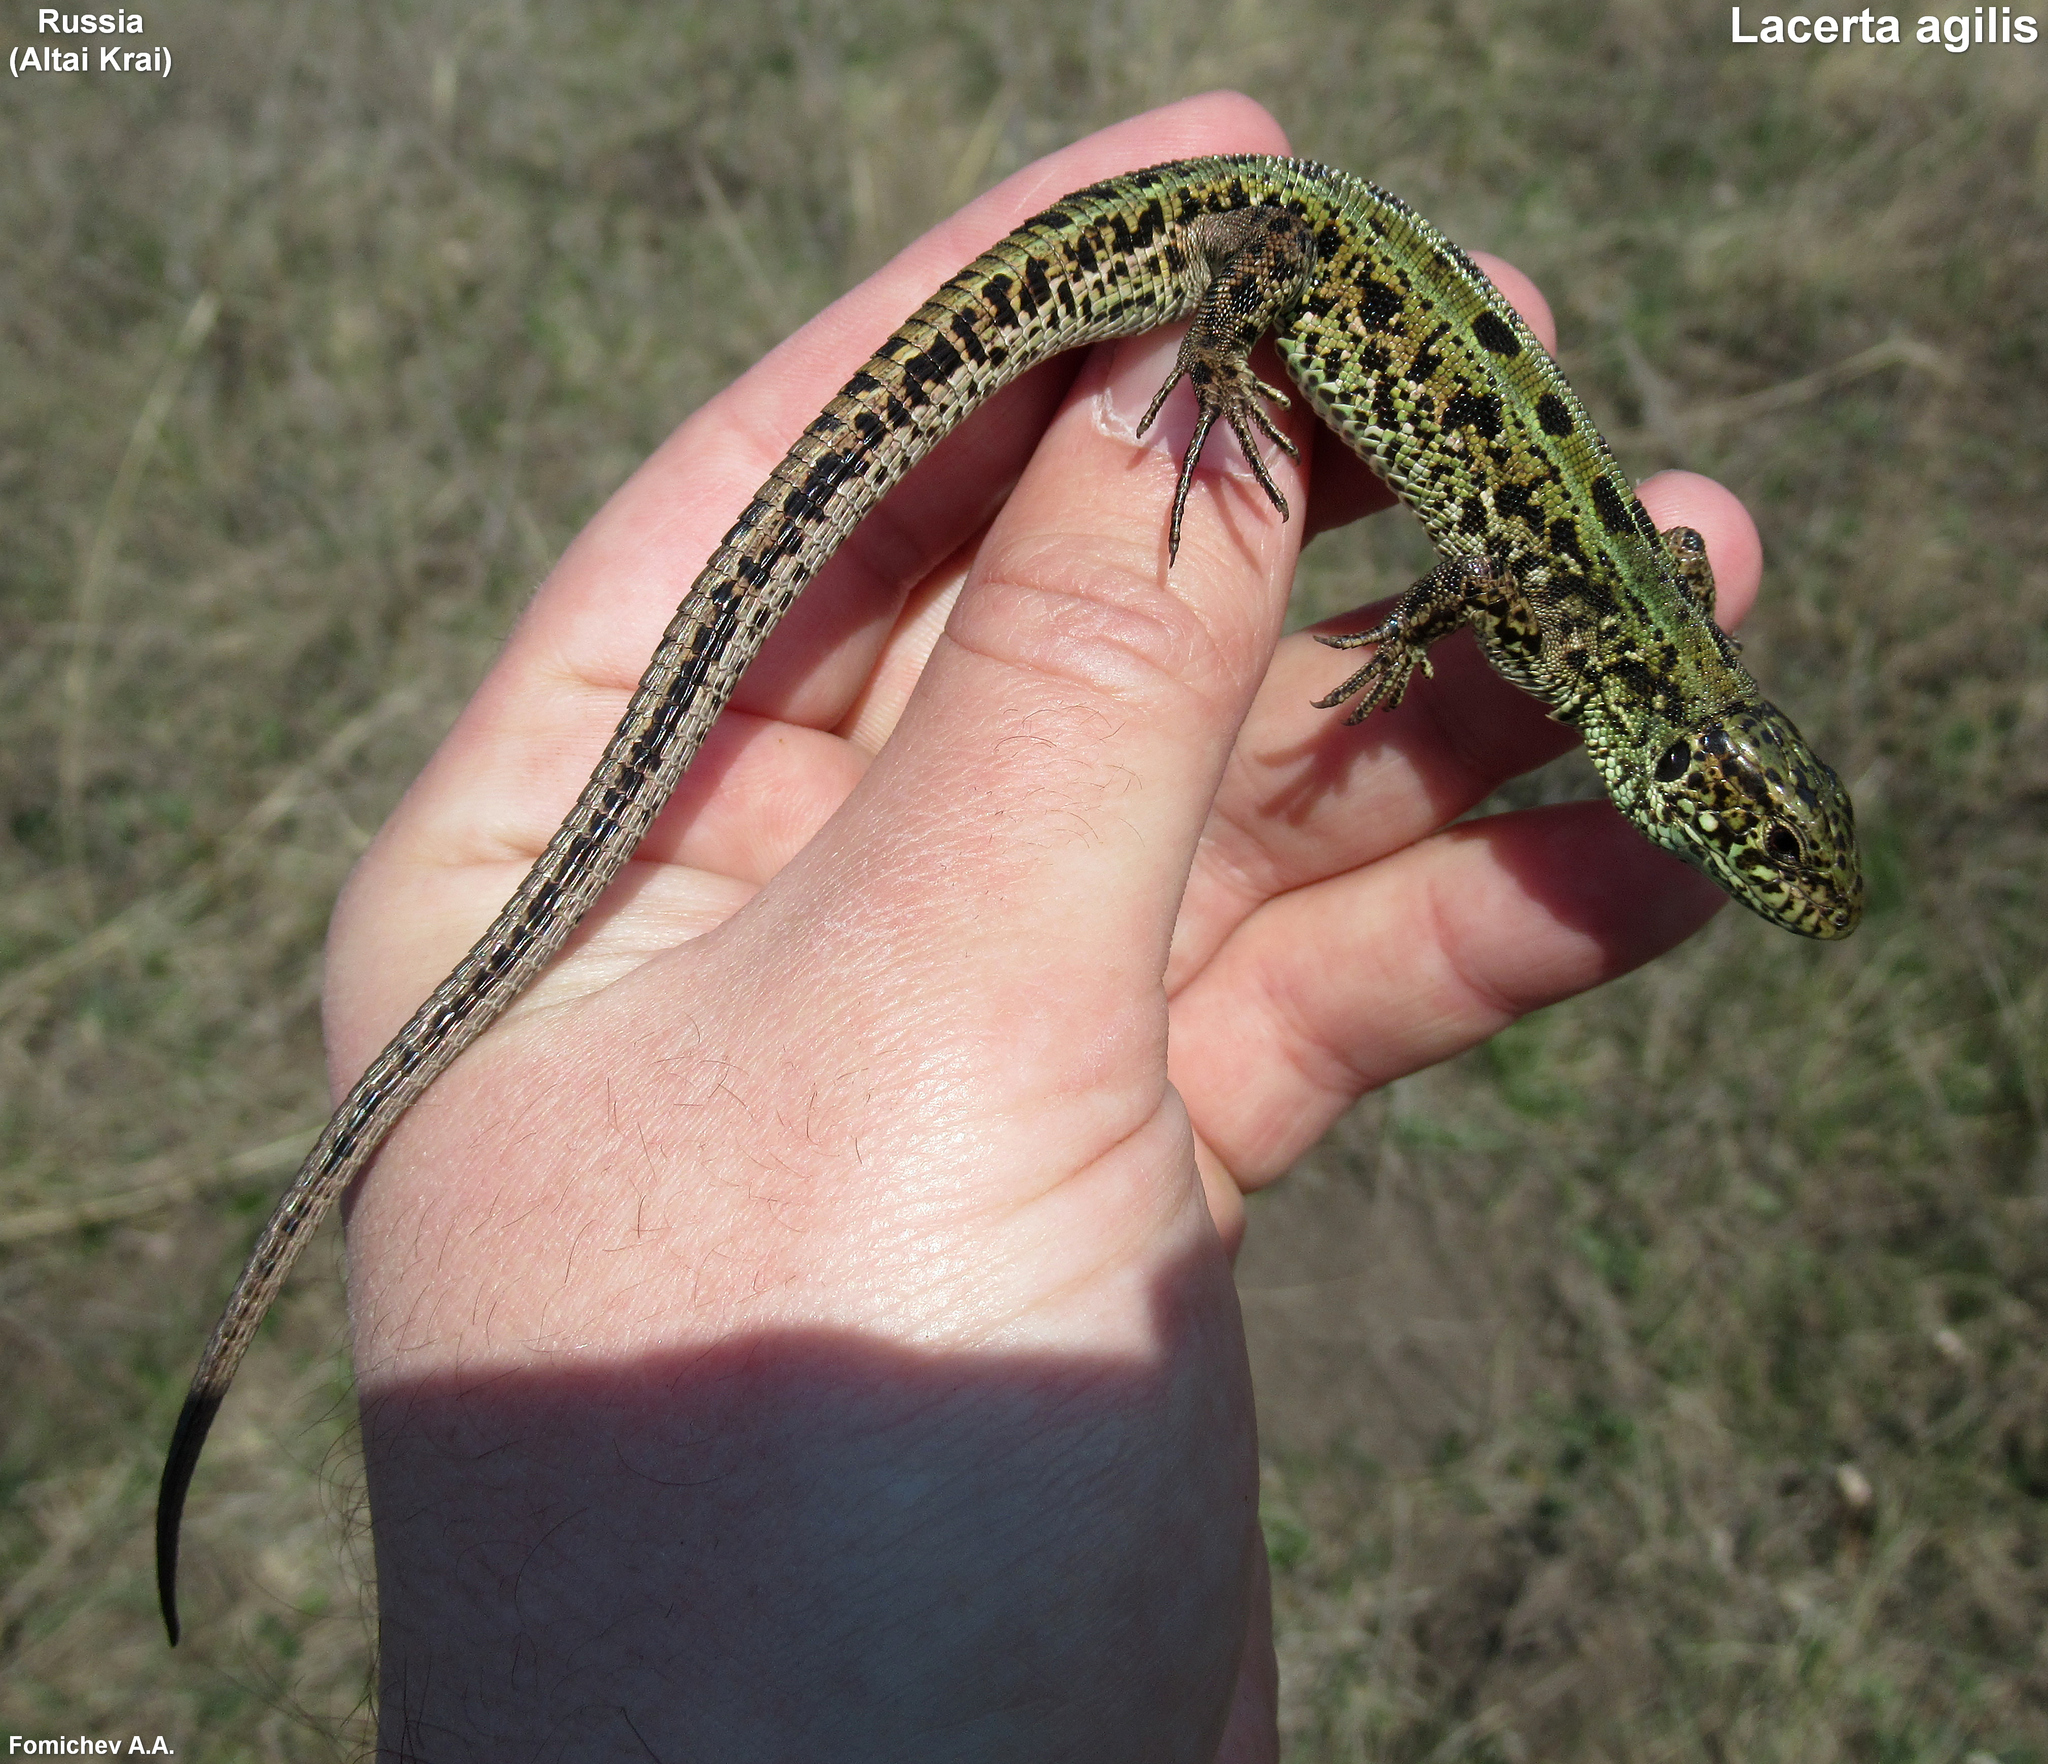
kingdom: Animalia
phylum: Chordata
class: Squamata
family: Lacertidae
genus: Lacerta
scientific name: Lacerta agilis
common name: Sand lizard
